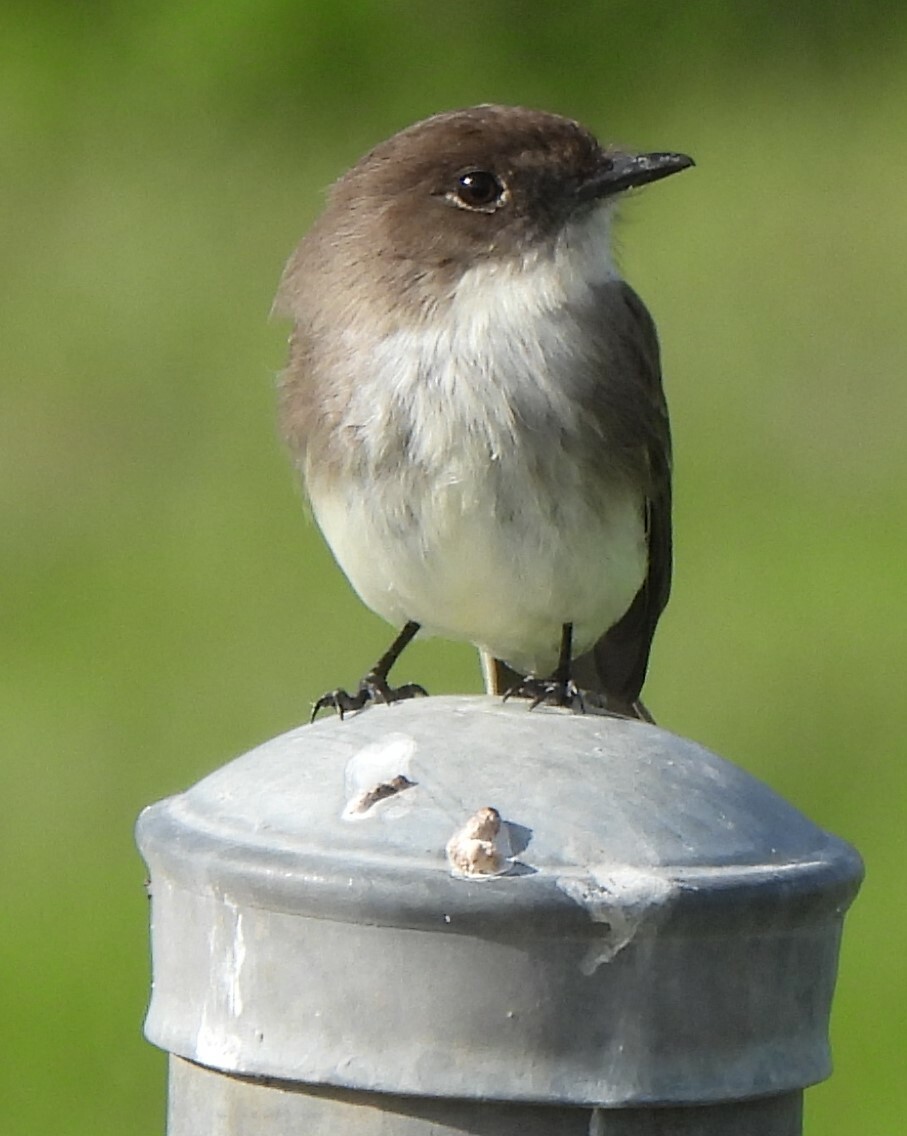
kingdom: Animalia
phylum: Chordata
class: Aves
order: Passeriformes
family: Tyrannidae
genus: Sayornis
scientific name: Sayornis phoebe
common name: Eastern phoebe
